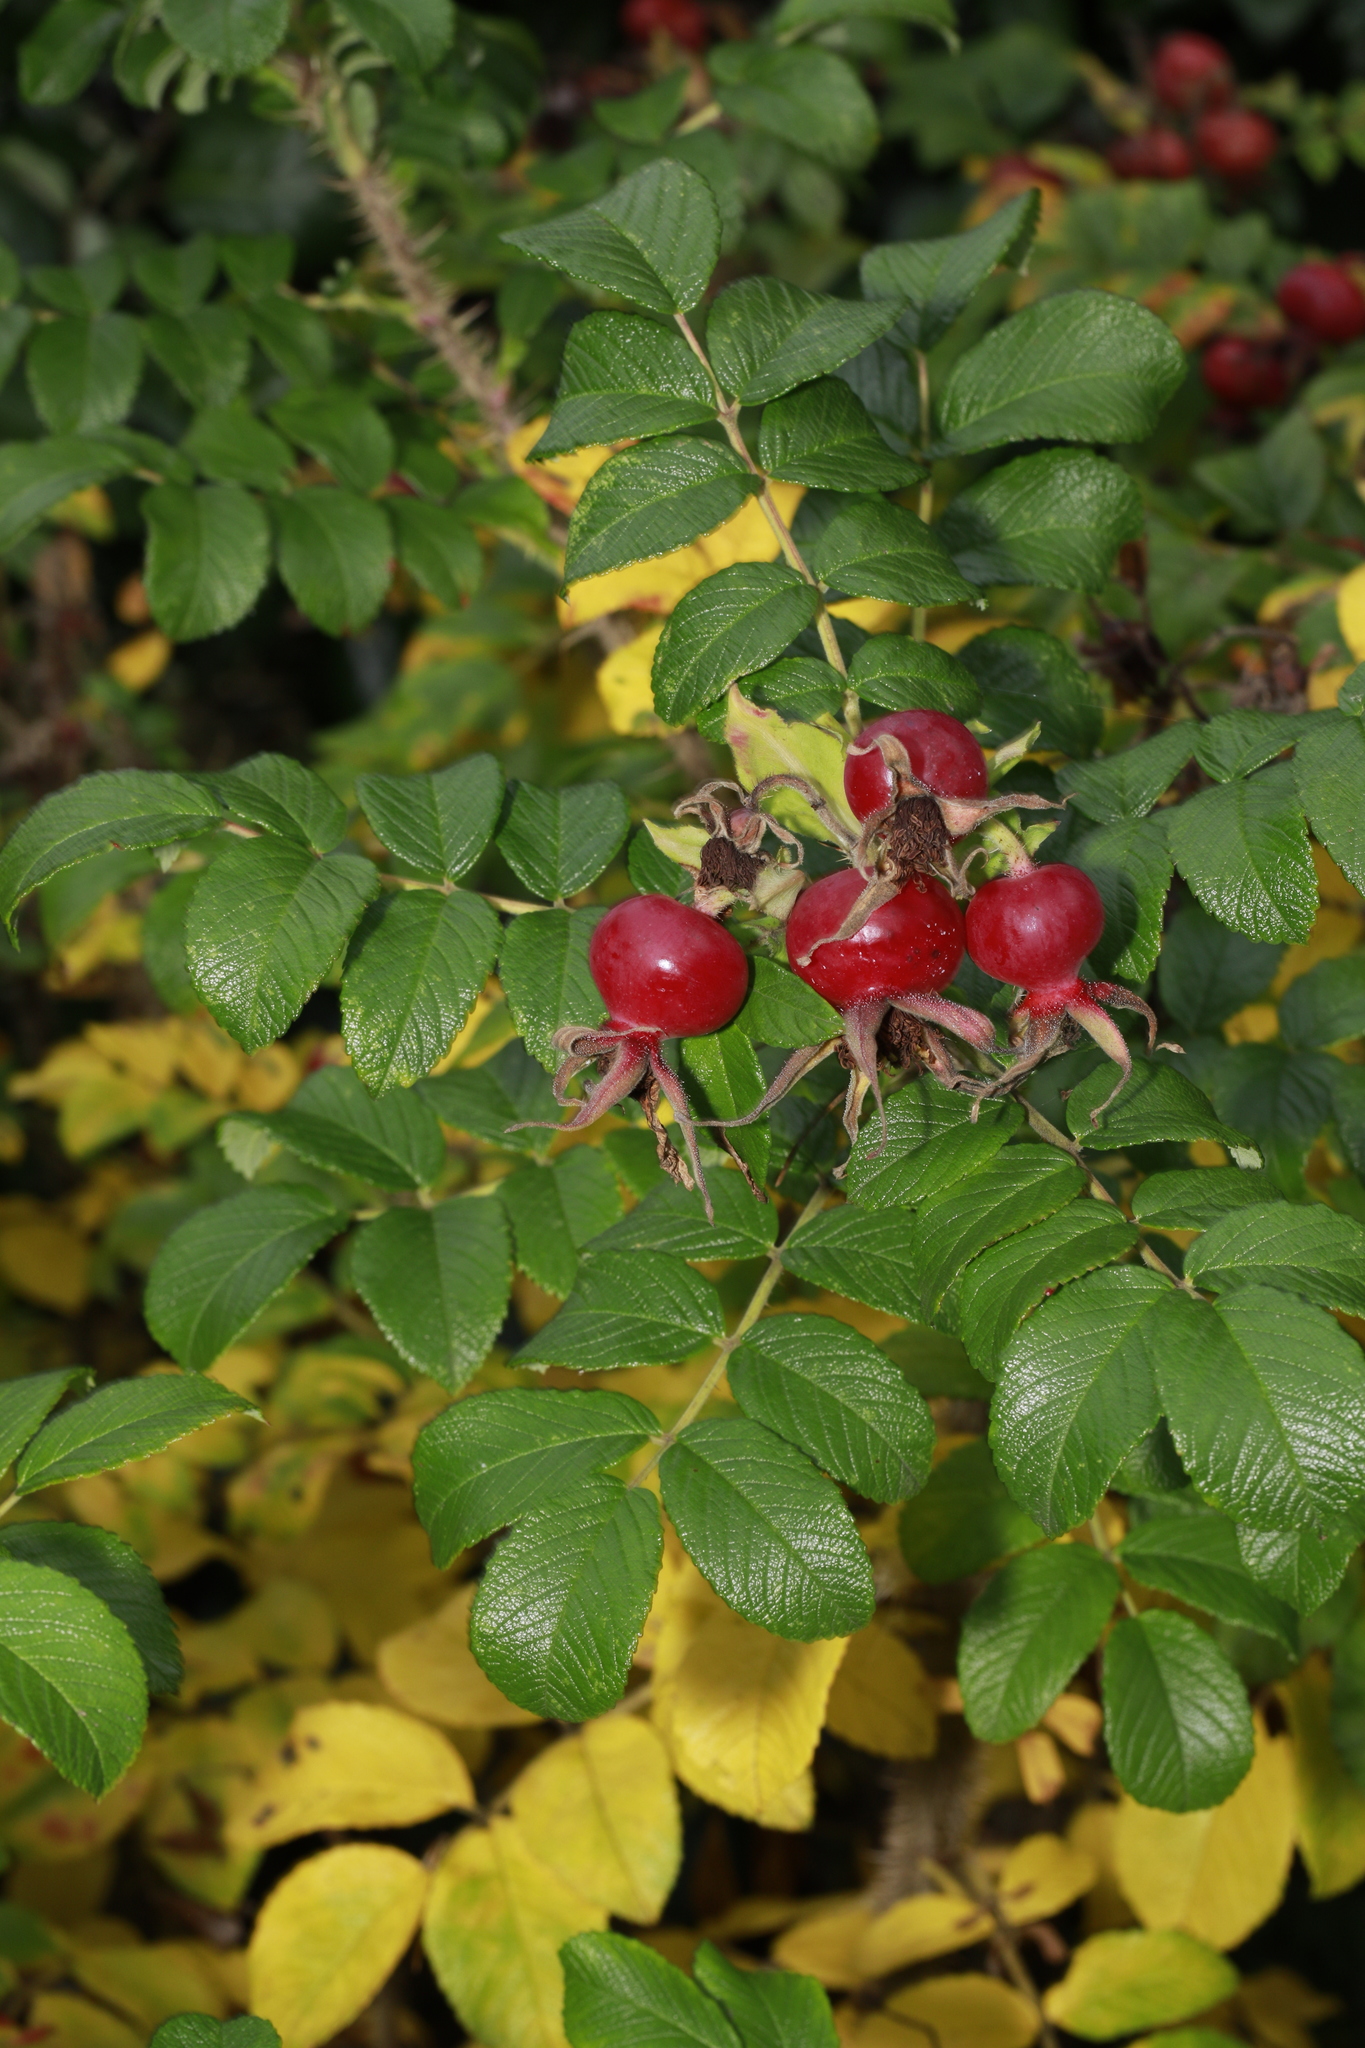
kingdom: Plantae
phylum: Tracheophyta
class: Magnoliopsida
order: Rosales
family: Rosaceae
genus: Rosa
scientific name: Rosa rugosa
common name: Japanese rose
